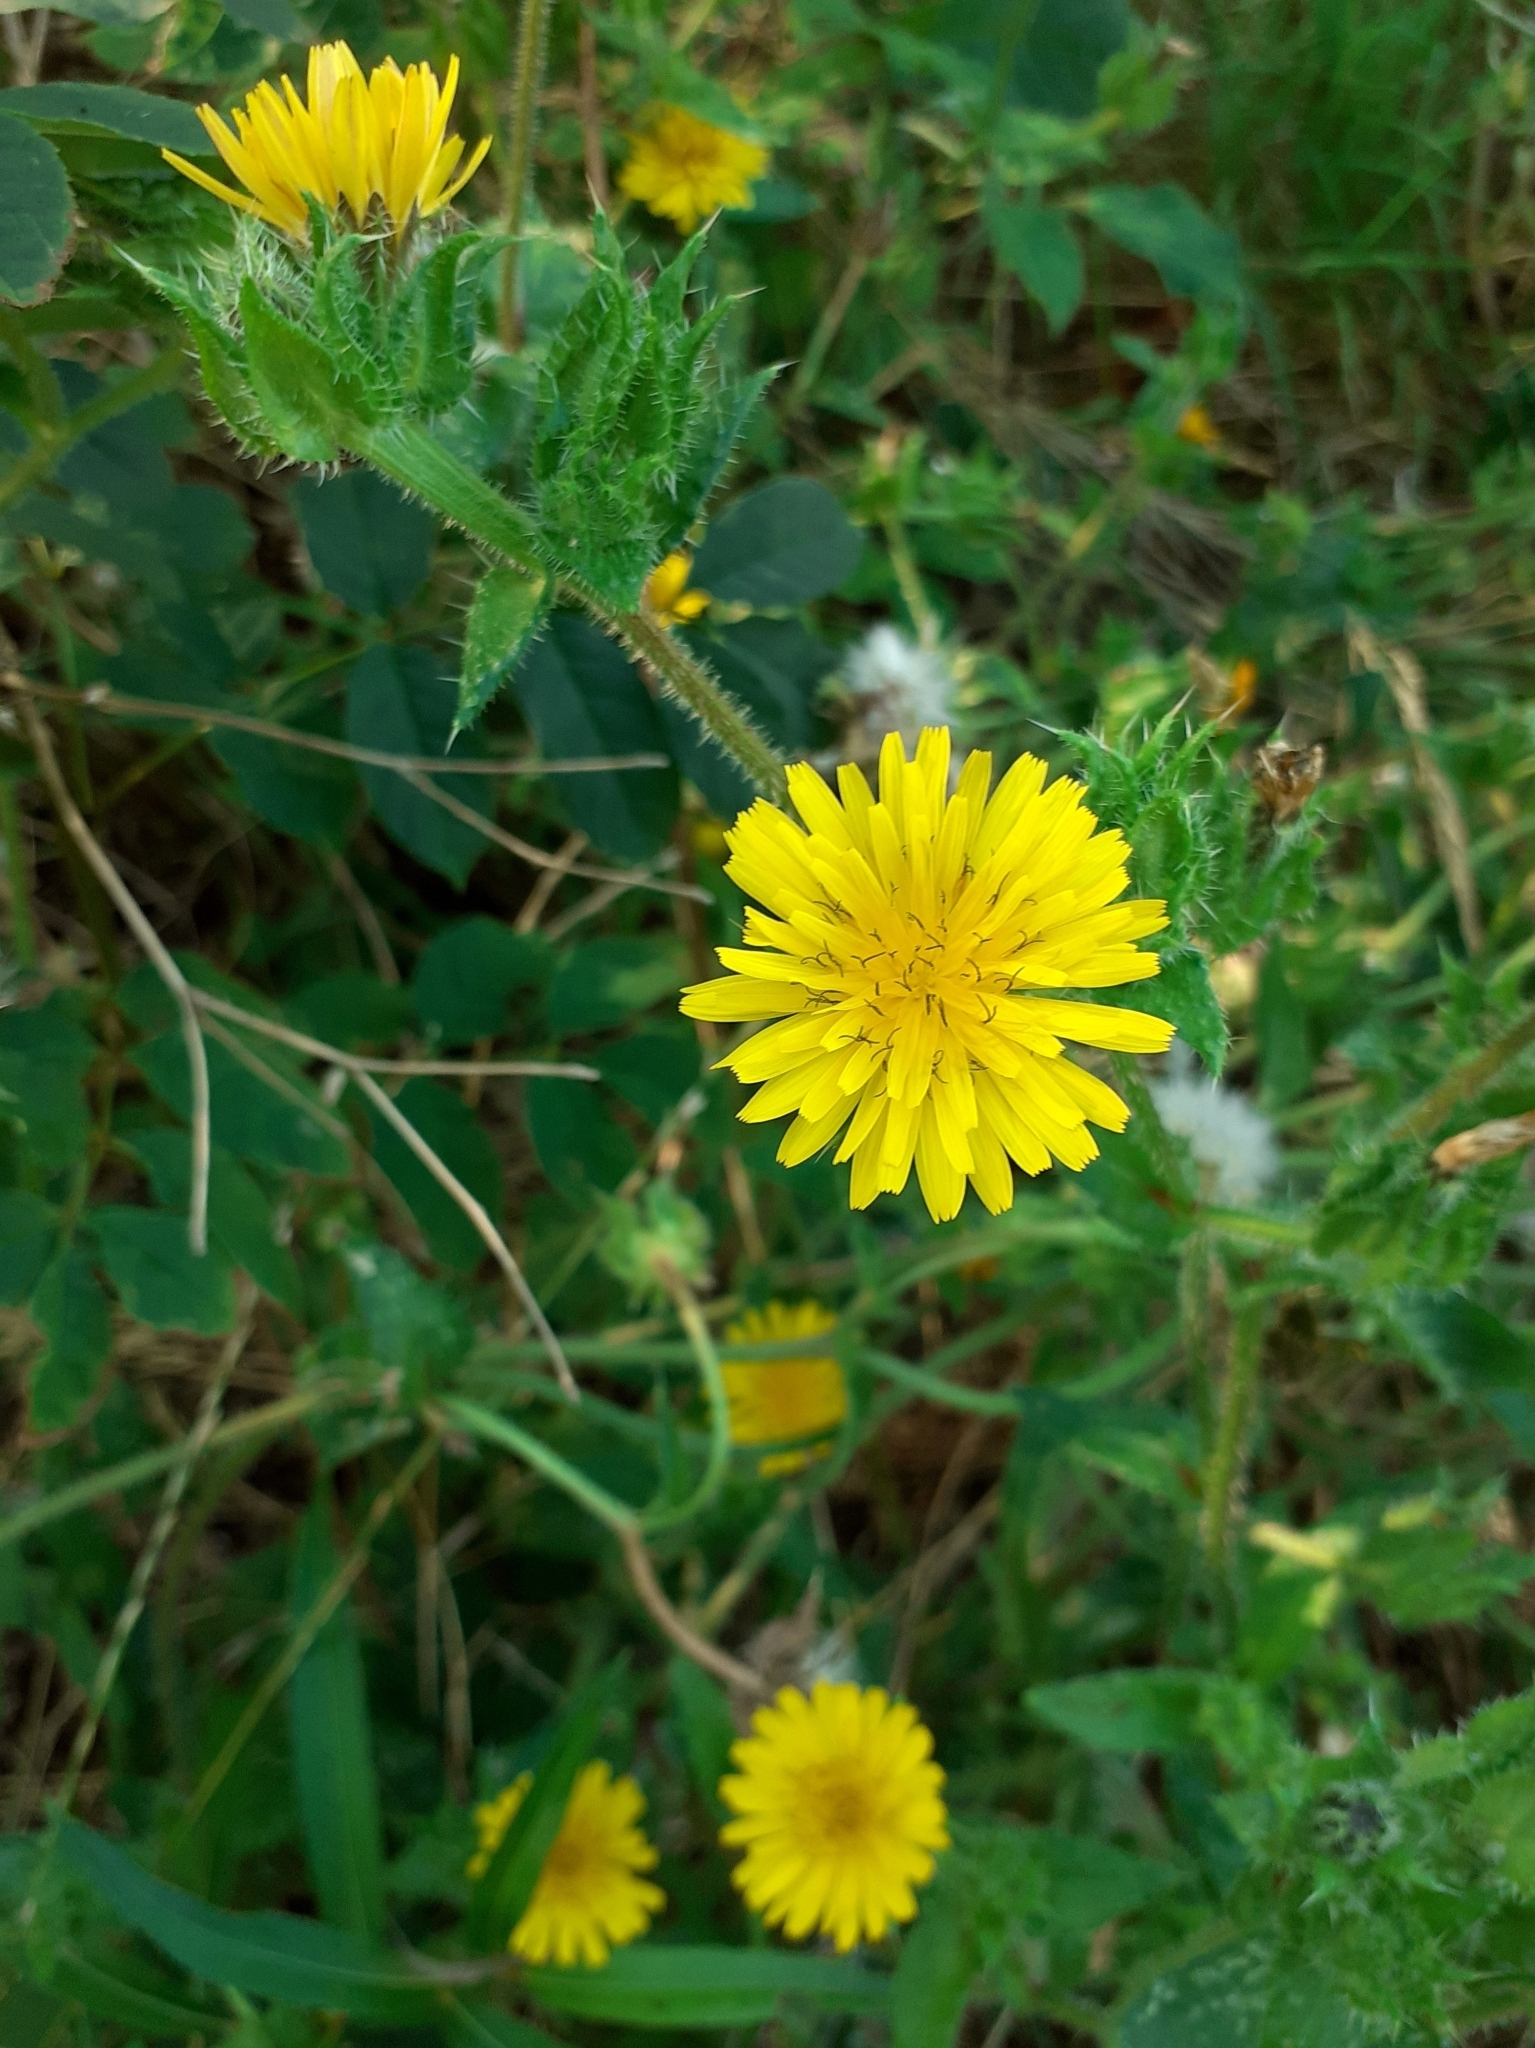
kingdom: Plantae
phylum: Tracheophyta
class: Magnoliopsida
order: Asterales
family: Asteraceae
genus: Helminthotheca
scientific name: Helminthotheca echioides
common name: Ox-tongue
